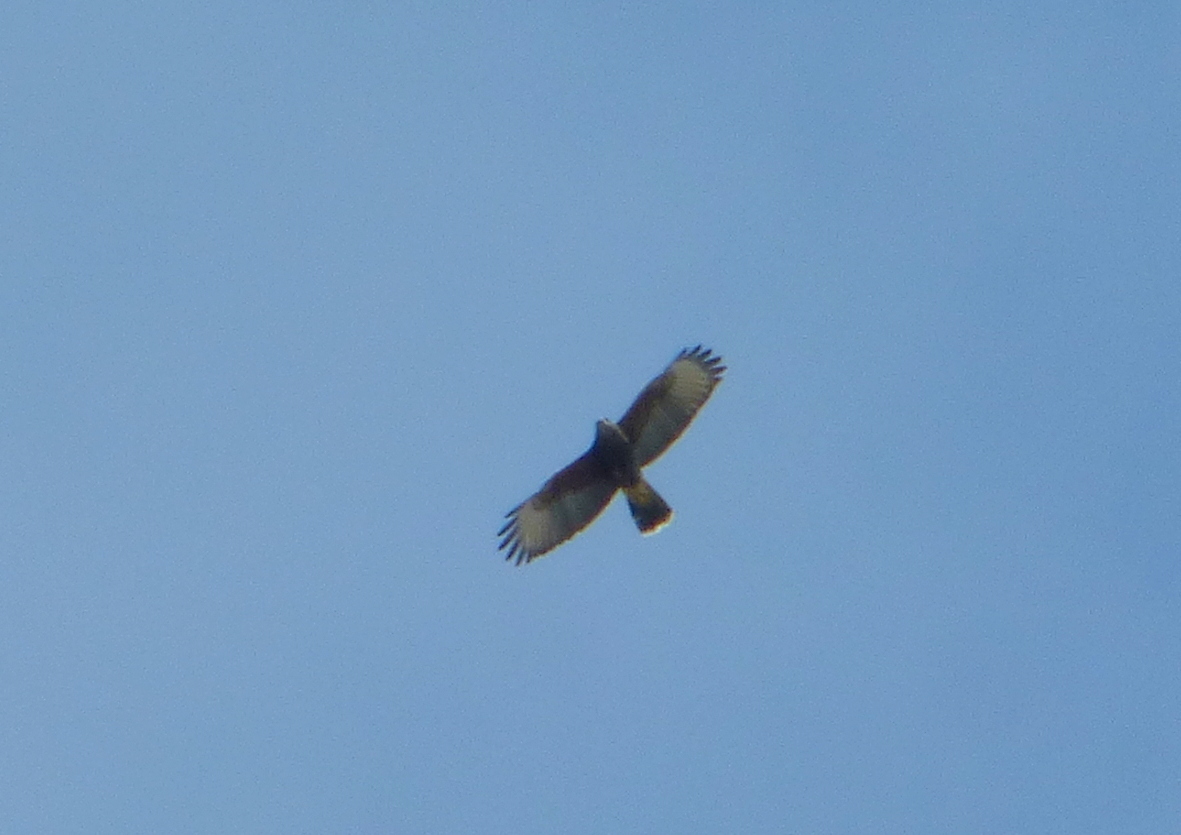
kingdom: Animalia
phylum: Chordata
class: Aves
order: Accipitriformes
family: Accipitridae
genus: Parabuteo
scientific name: Parabuteo unicinctus
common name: Harris's hawk
